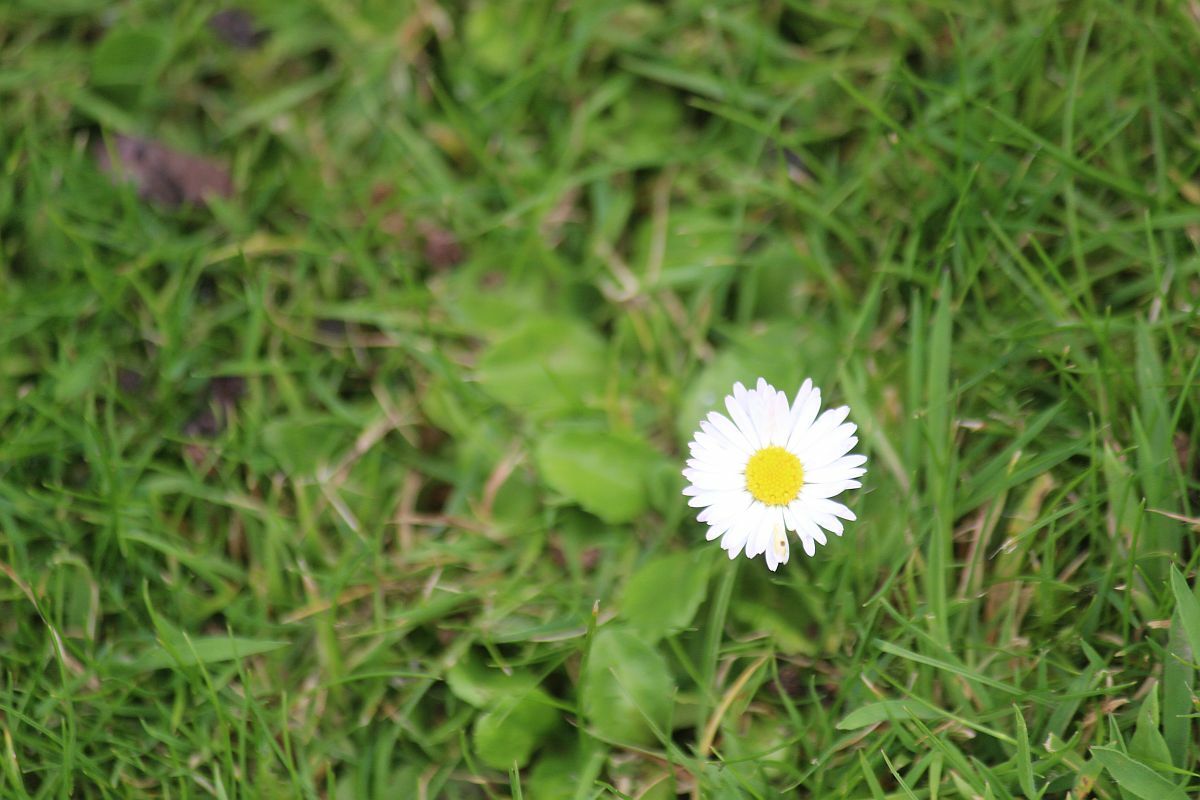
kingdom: Plantae
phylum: Tracheophyta
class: Magnoliopsida
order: Asterales
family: Asteraceae
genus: Bellis
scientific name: Bellis perennis
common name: Lawndaisy
